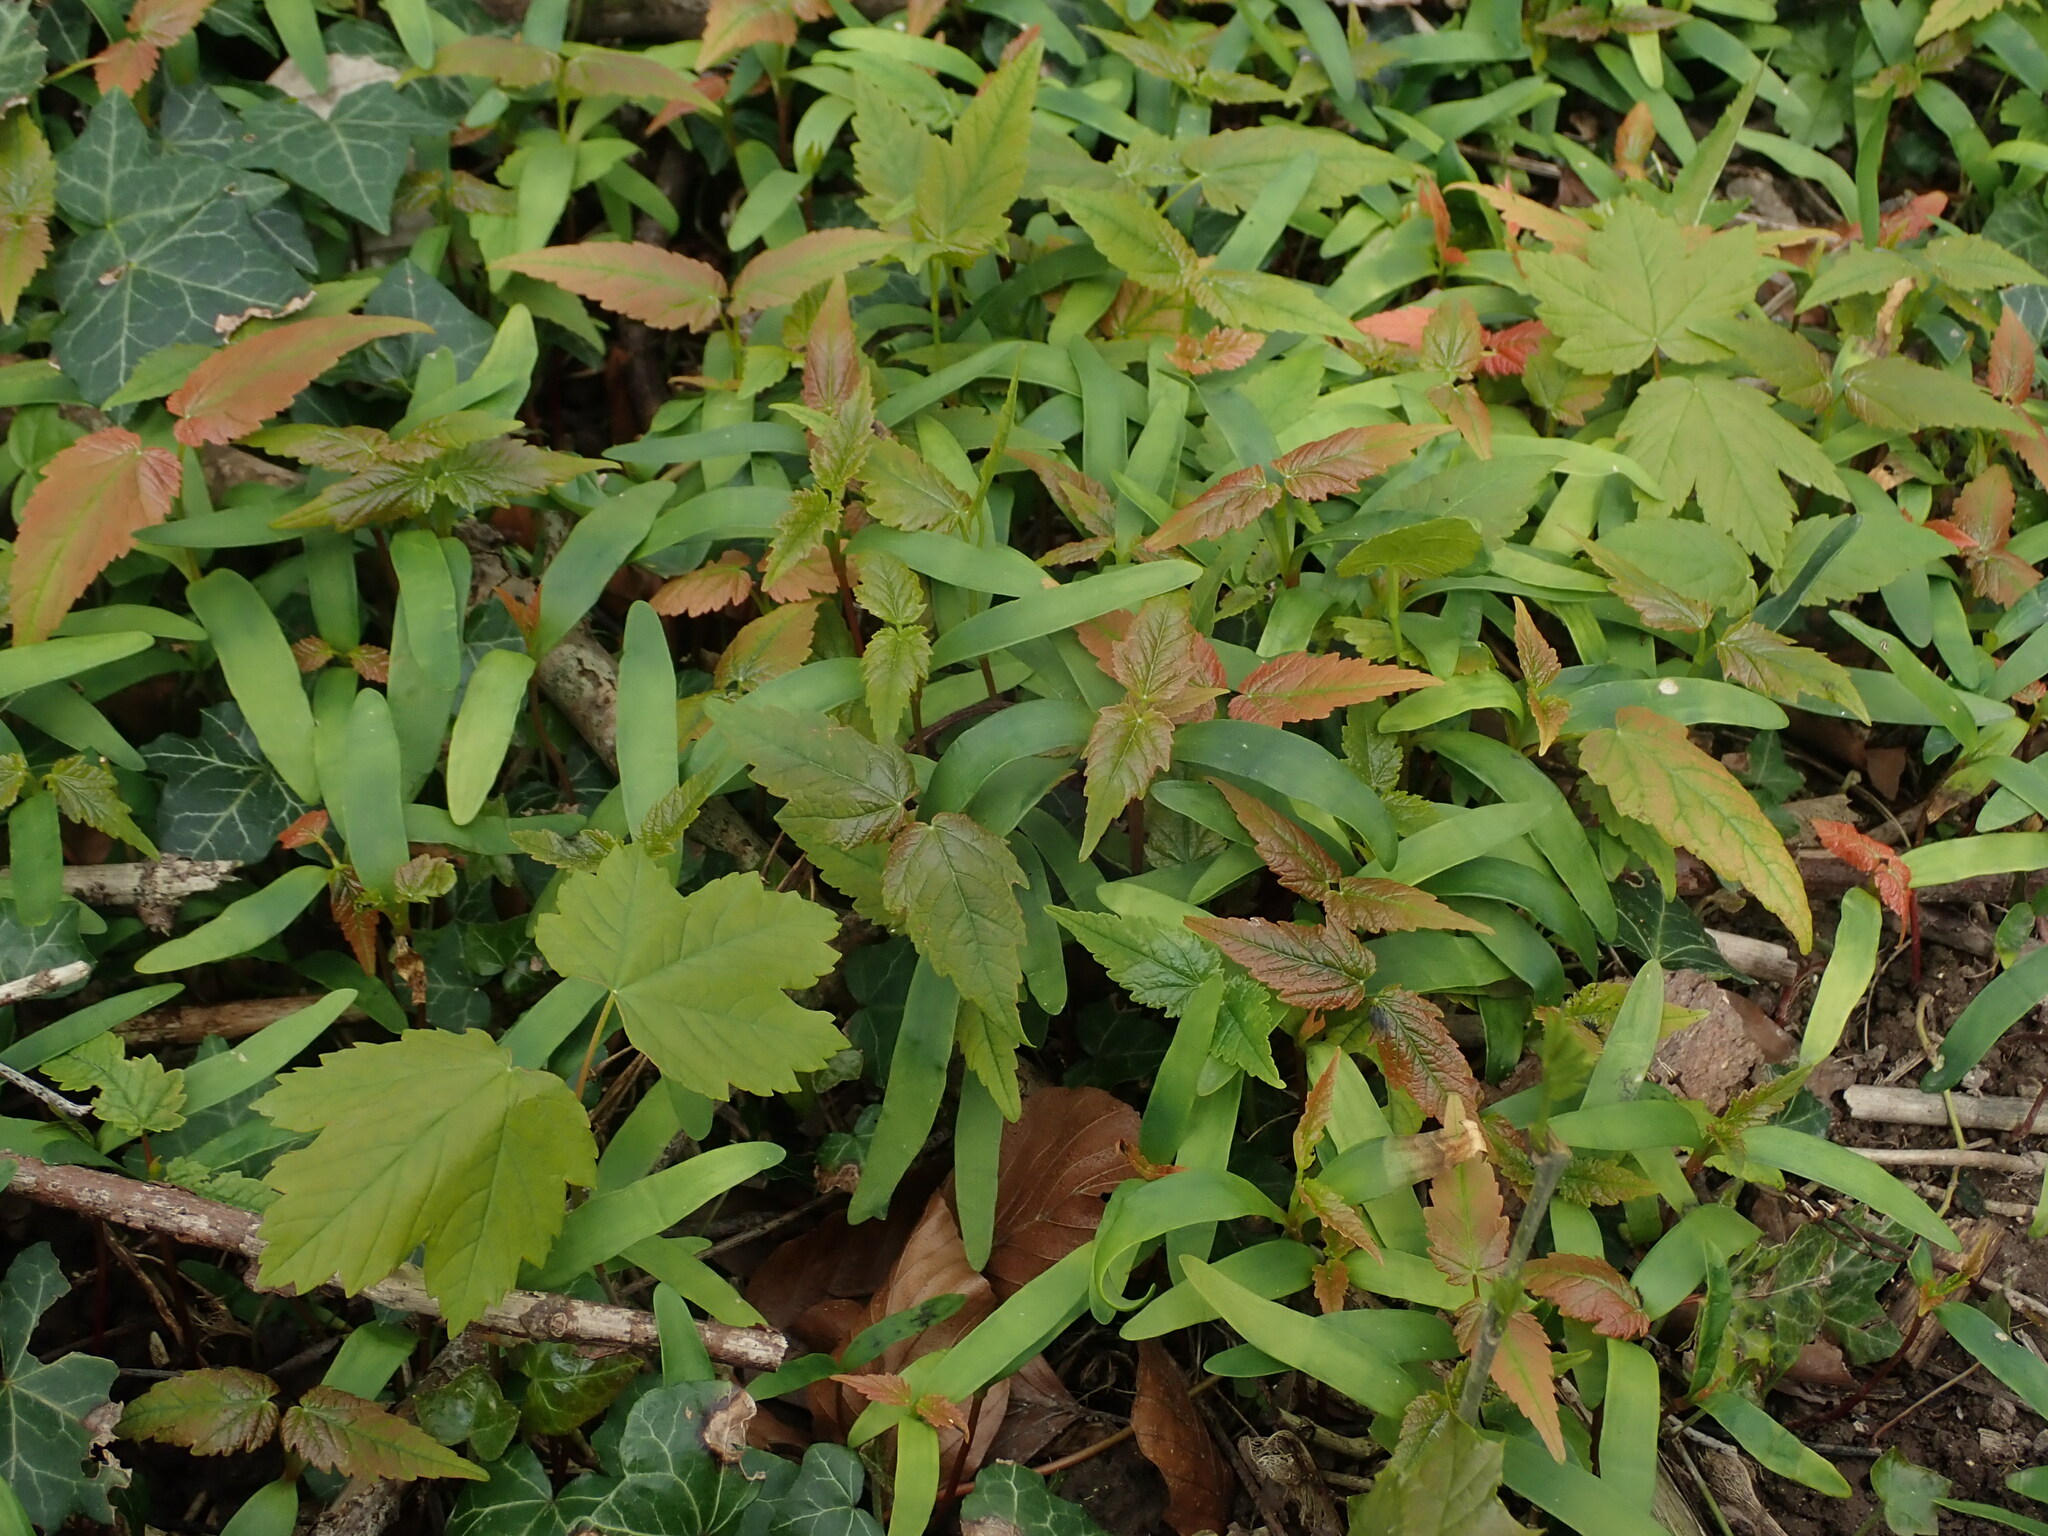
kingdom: Plantae
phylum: Tracheophyta
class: Magnoliopsida
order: Sapindales
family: Sapindaceae
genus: Acer
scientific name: Acer pseudoplatanus
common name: Sycamore
